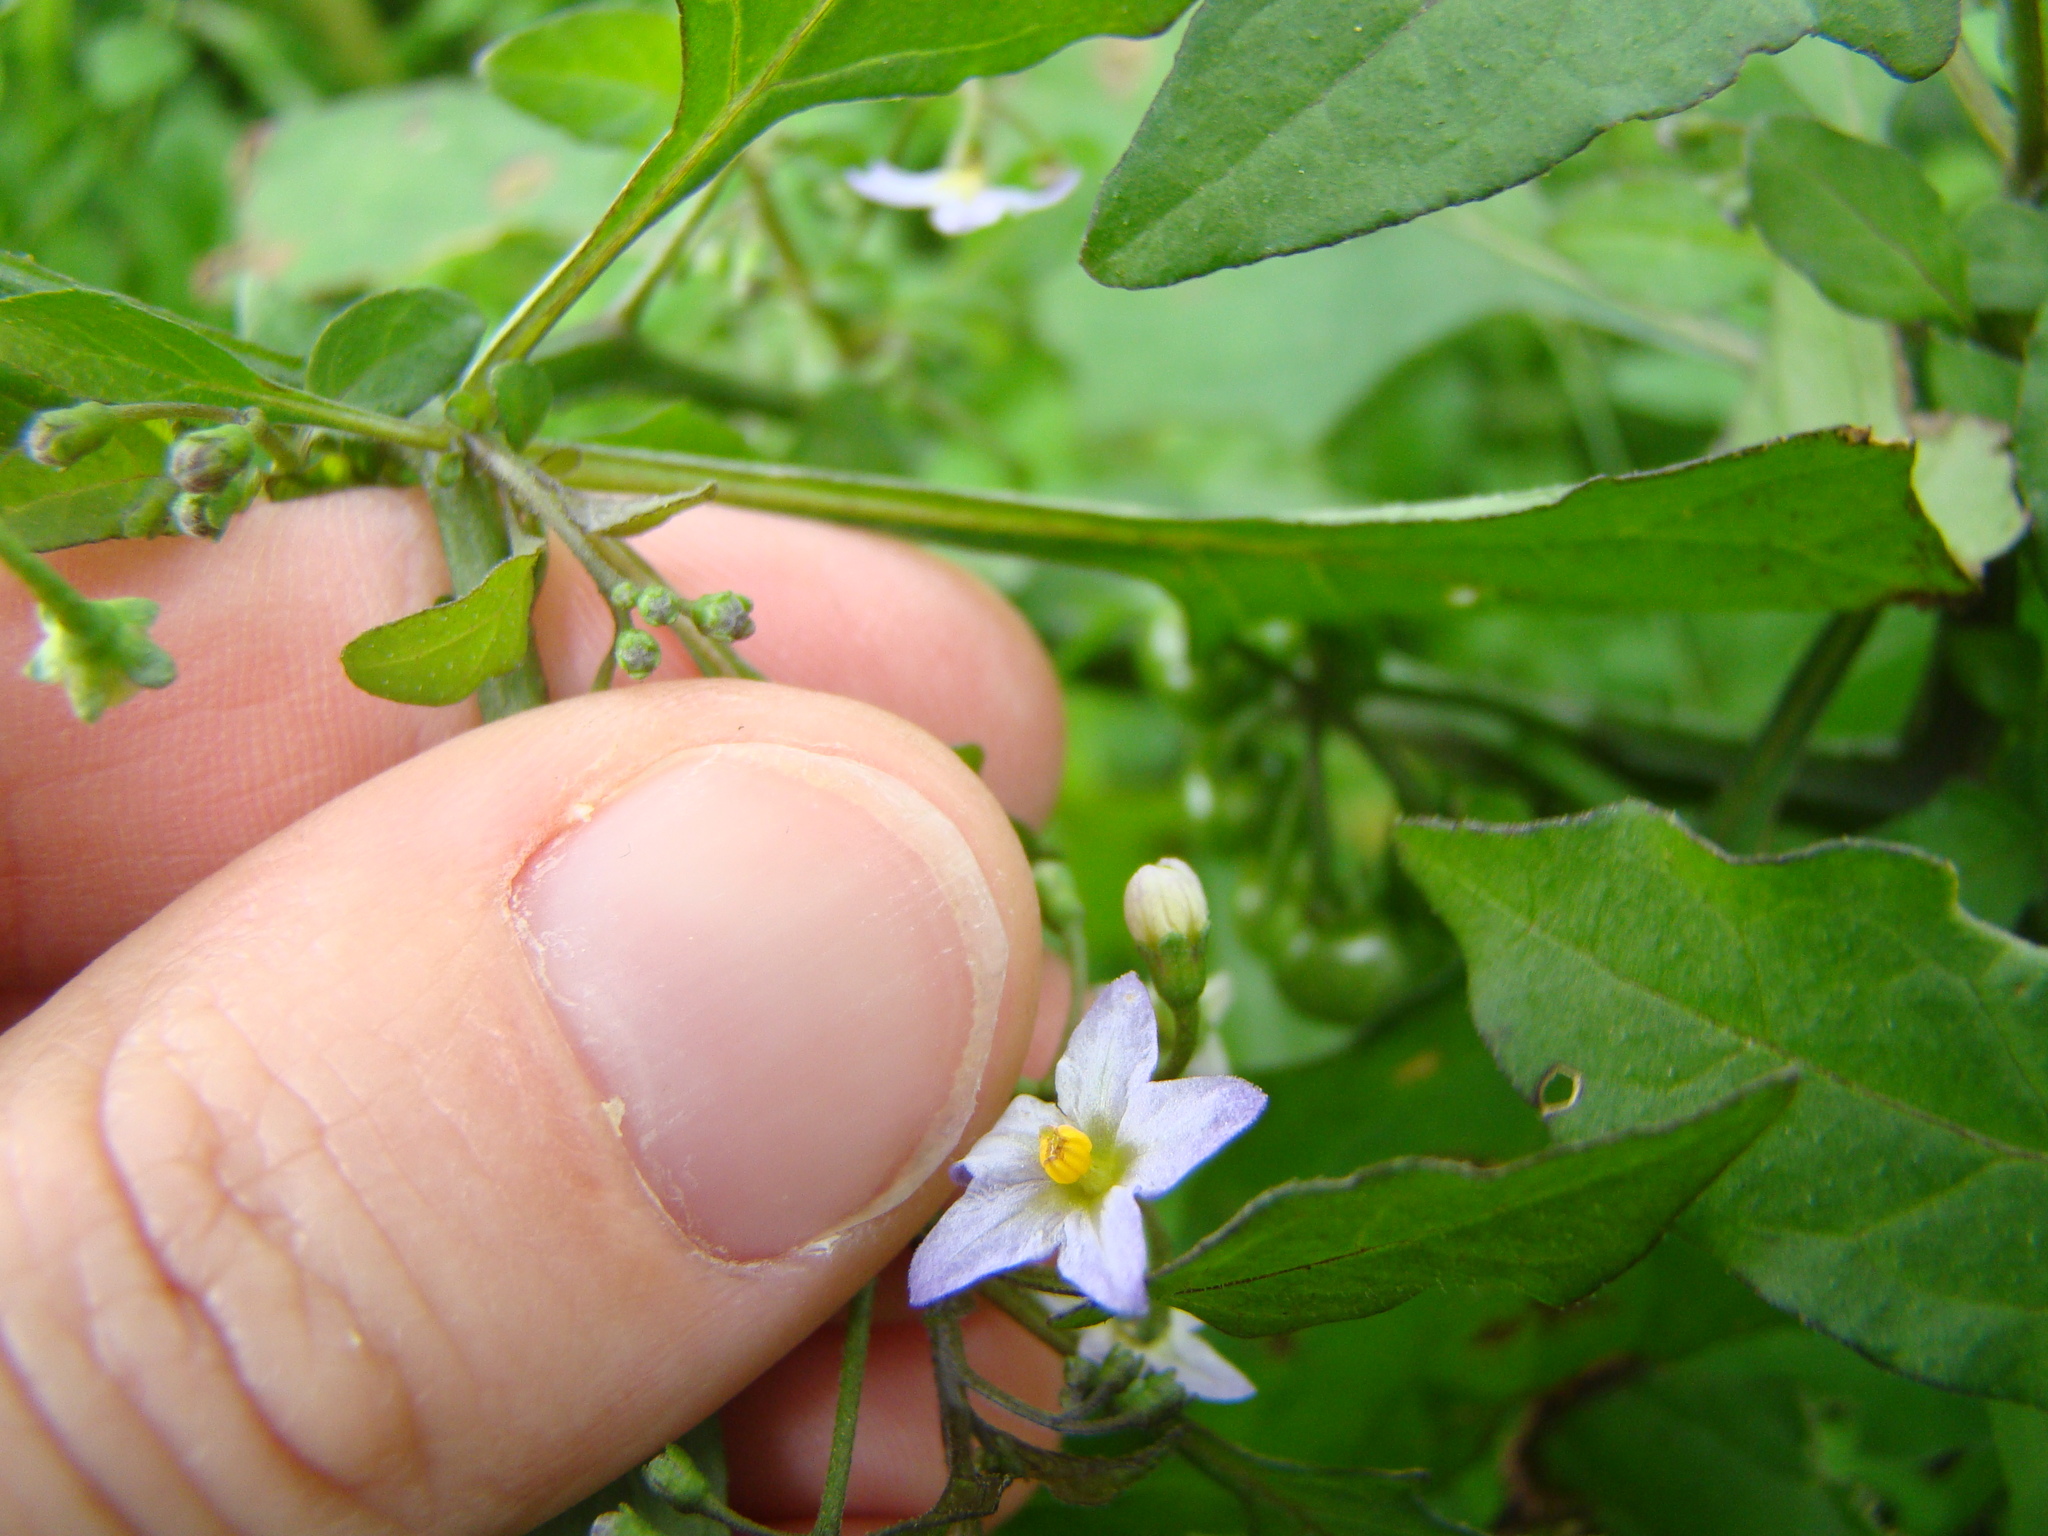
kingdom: Plantae
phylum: Tracheophyta
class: Magnoliopsida
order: Solanales
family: Solanaceae
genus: Solanum
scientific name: Solanum nigrum
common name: Black nightshade
